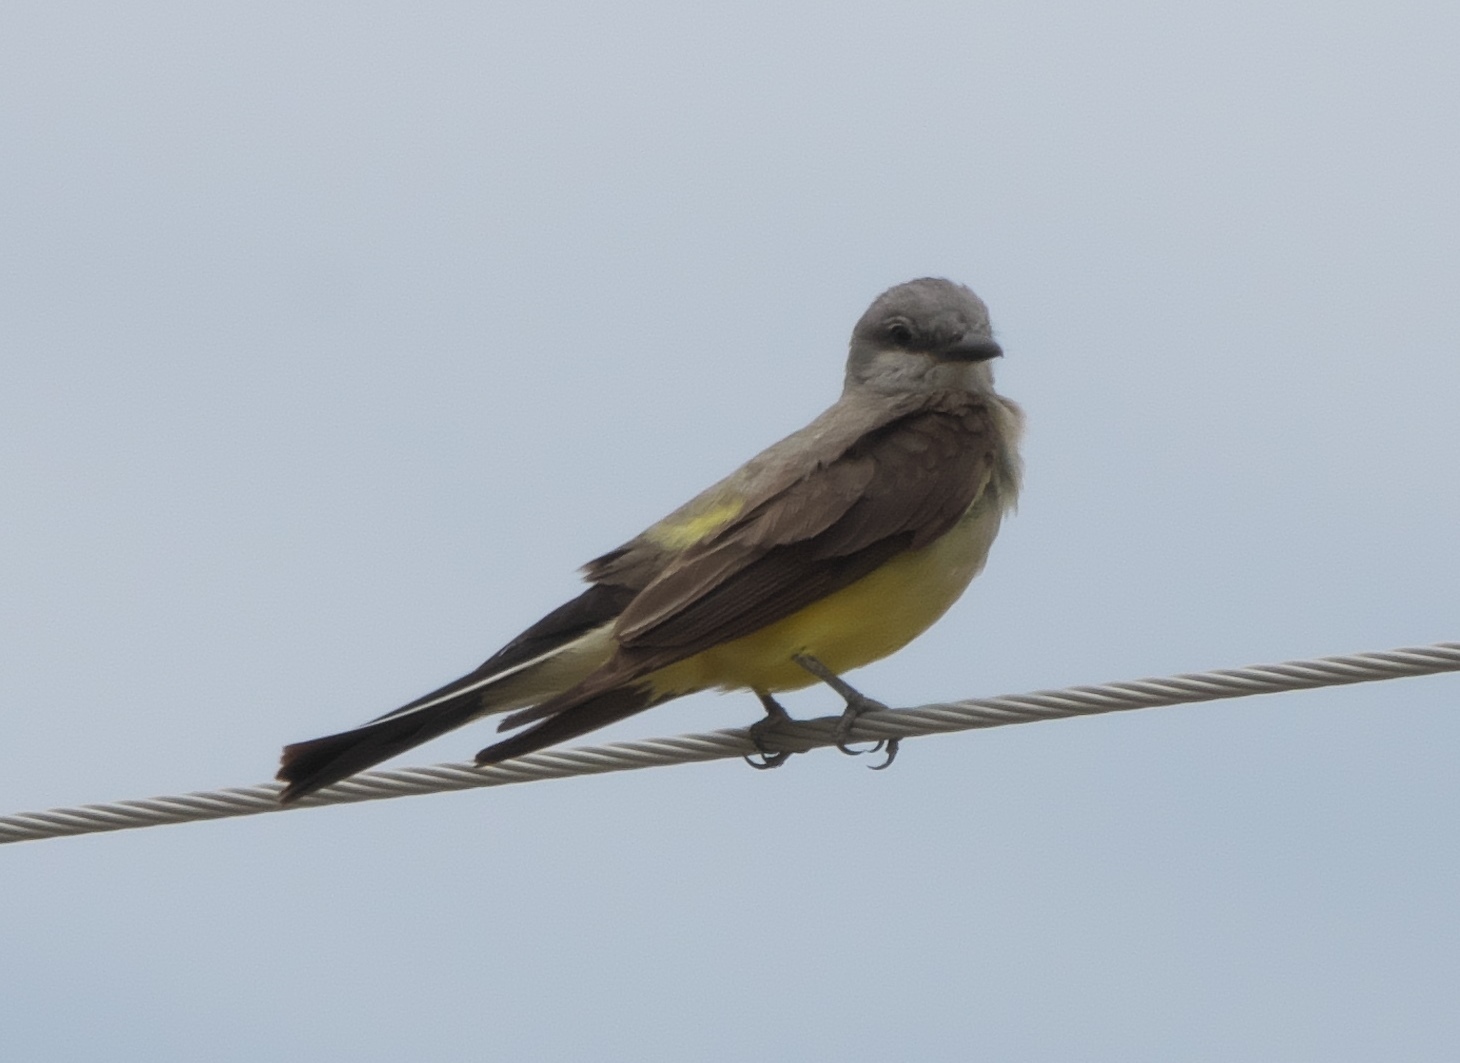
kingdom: Animalia
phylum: Chordata
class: Aves
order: Passeriformes
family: Tyrannidae
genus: Tyrannus
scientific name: Tyrannus verticalis
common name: Western kingbird
